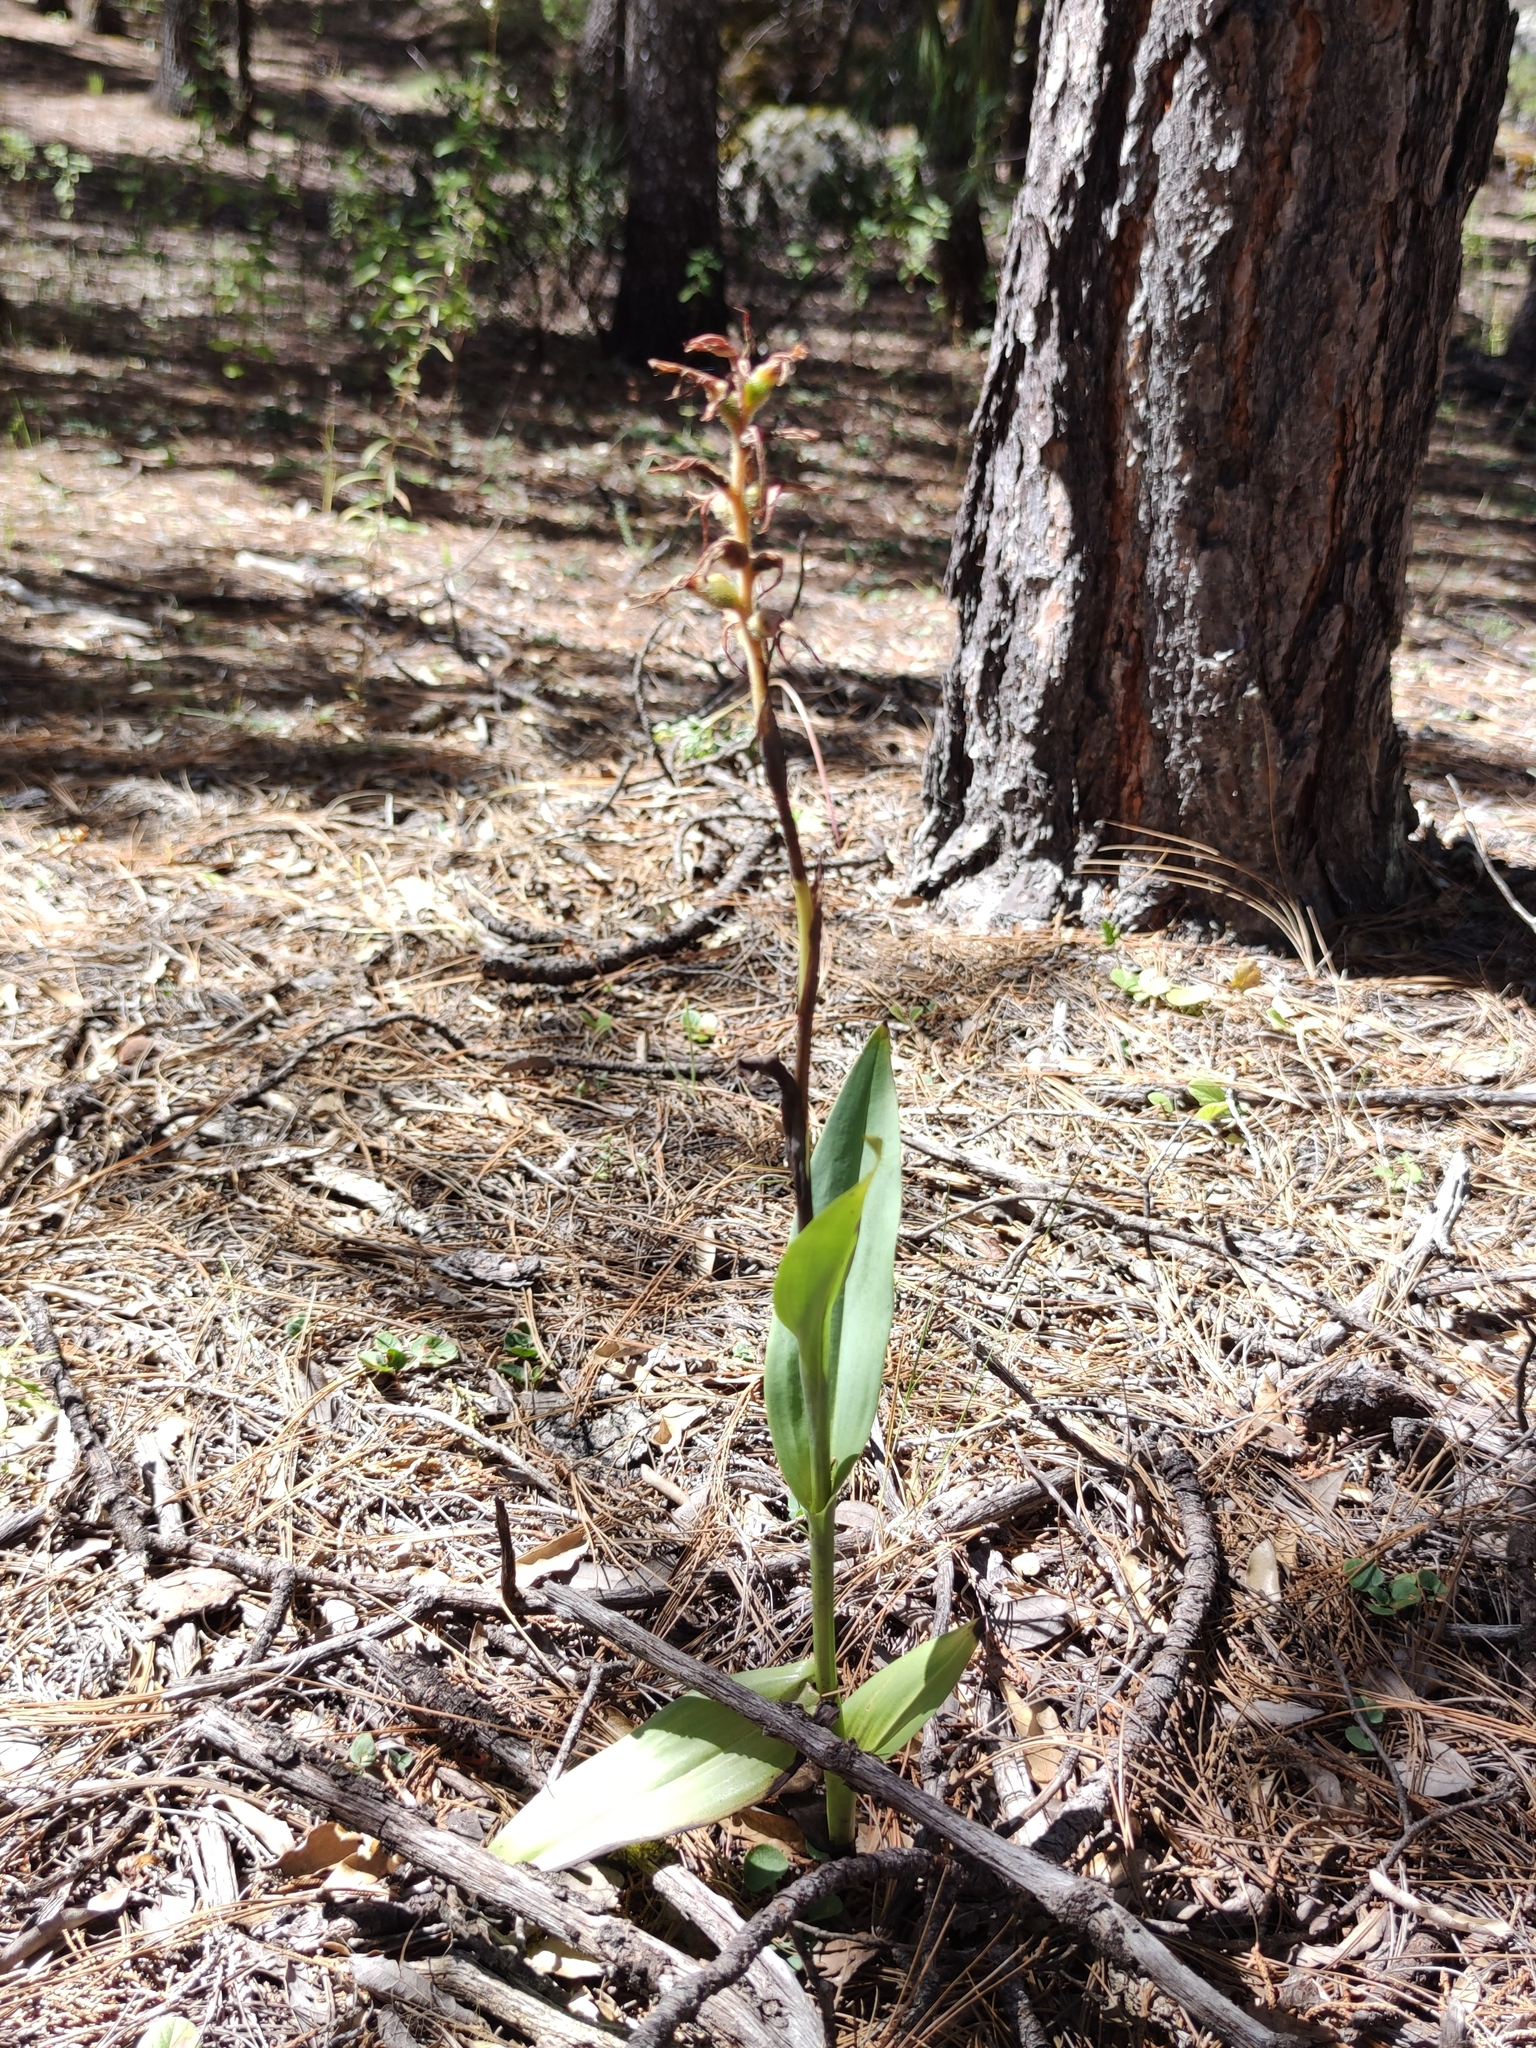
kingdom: Plantae
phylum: Tracheophyta
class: Liliopsida
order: Asparagales
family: Orchidaceae
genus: Dichromanthus
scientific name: Dichromanthus aurantiacus
